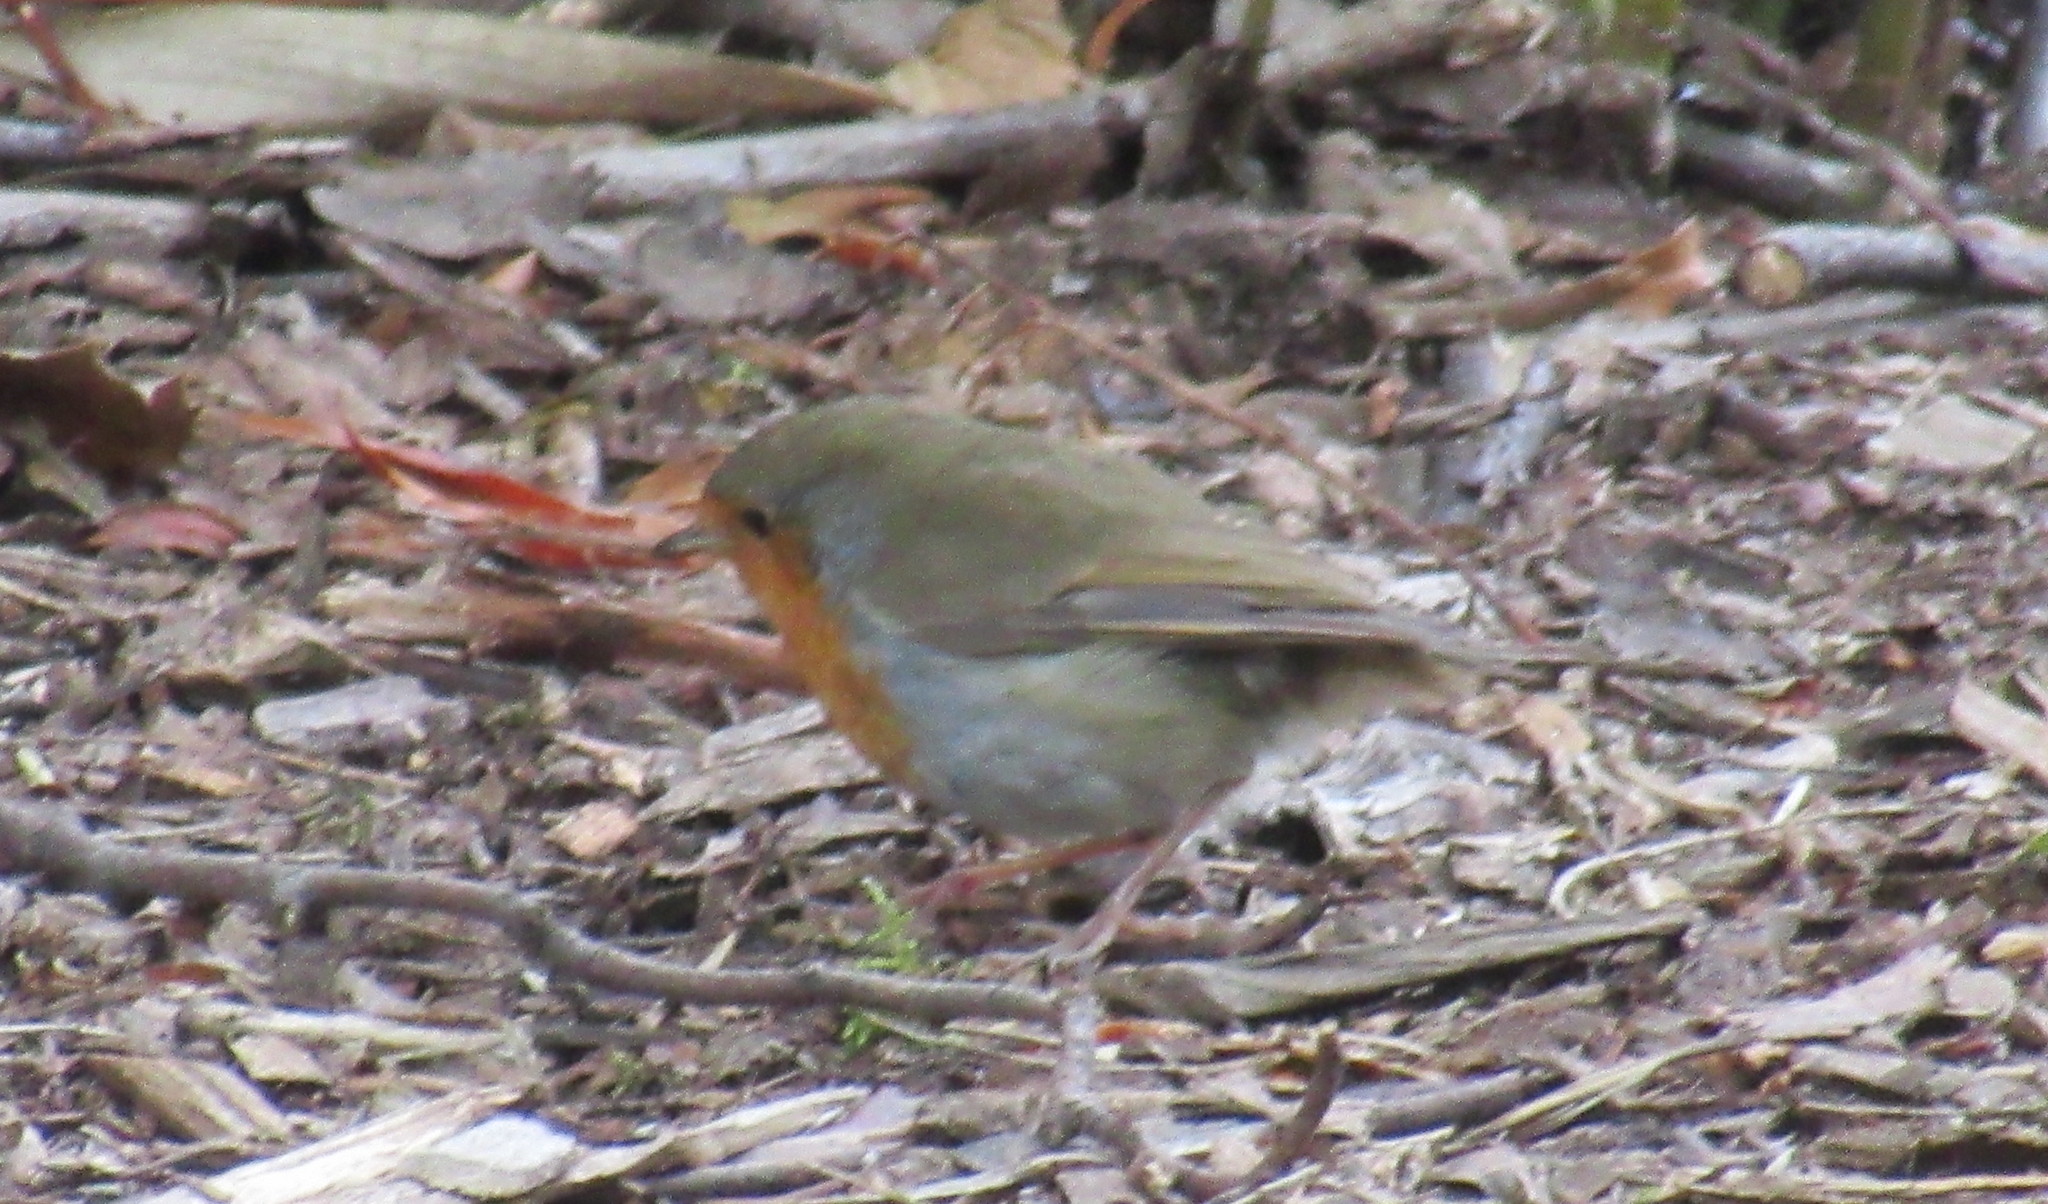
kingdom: Animalia
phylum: Chordata
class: Aves
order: Passeriformes
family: Muscicapidae
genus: Erithacus
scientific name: Erithacus rubecula
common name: European robin
